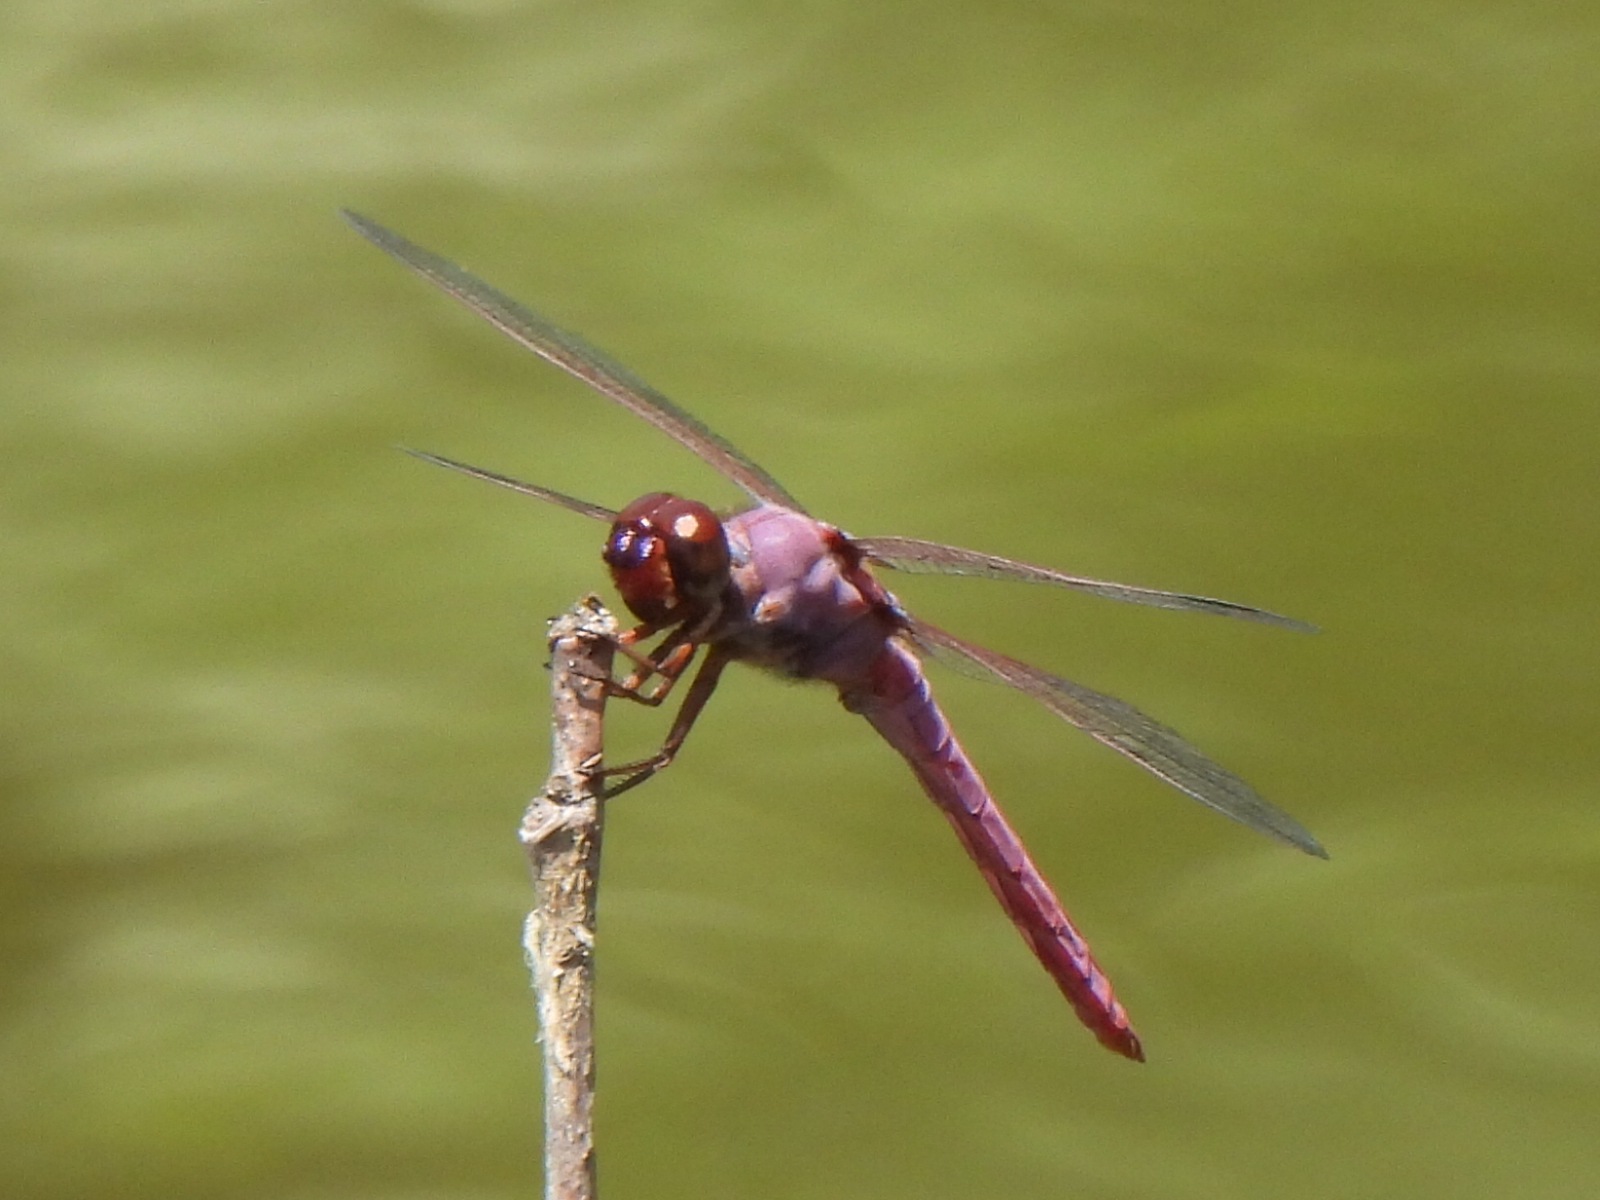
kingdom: Animalia
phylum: Arthropoda
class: Insecta
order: Odonata
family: Libellulidae
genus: Orthemis
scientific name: Orthemis ferruginea
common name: Roseate skimmer
